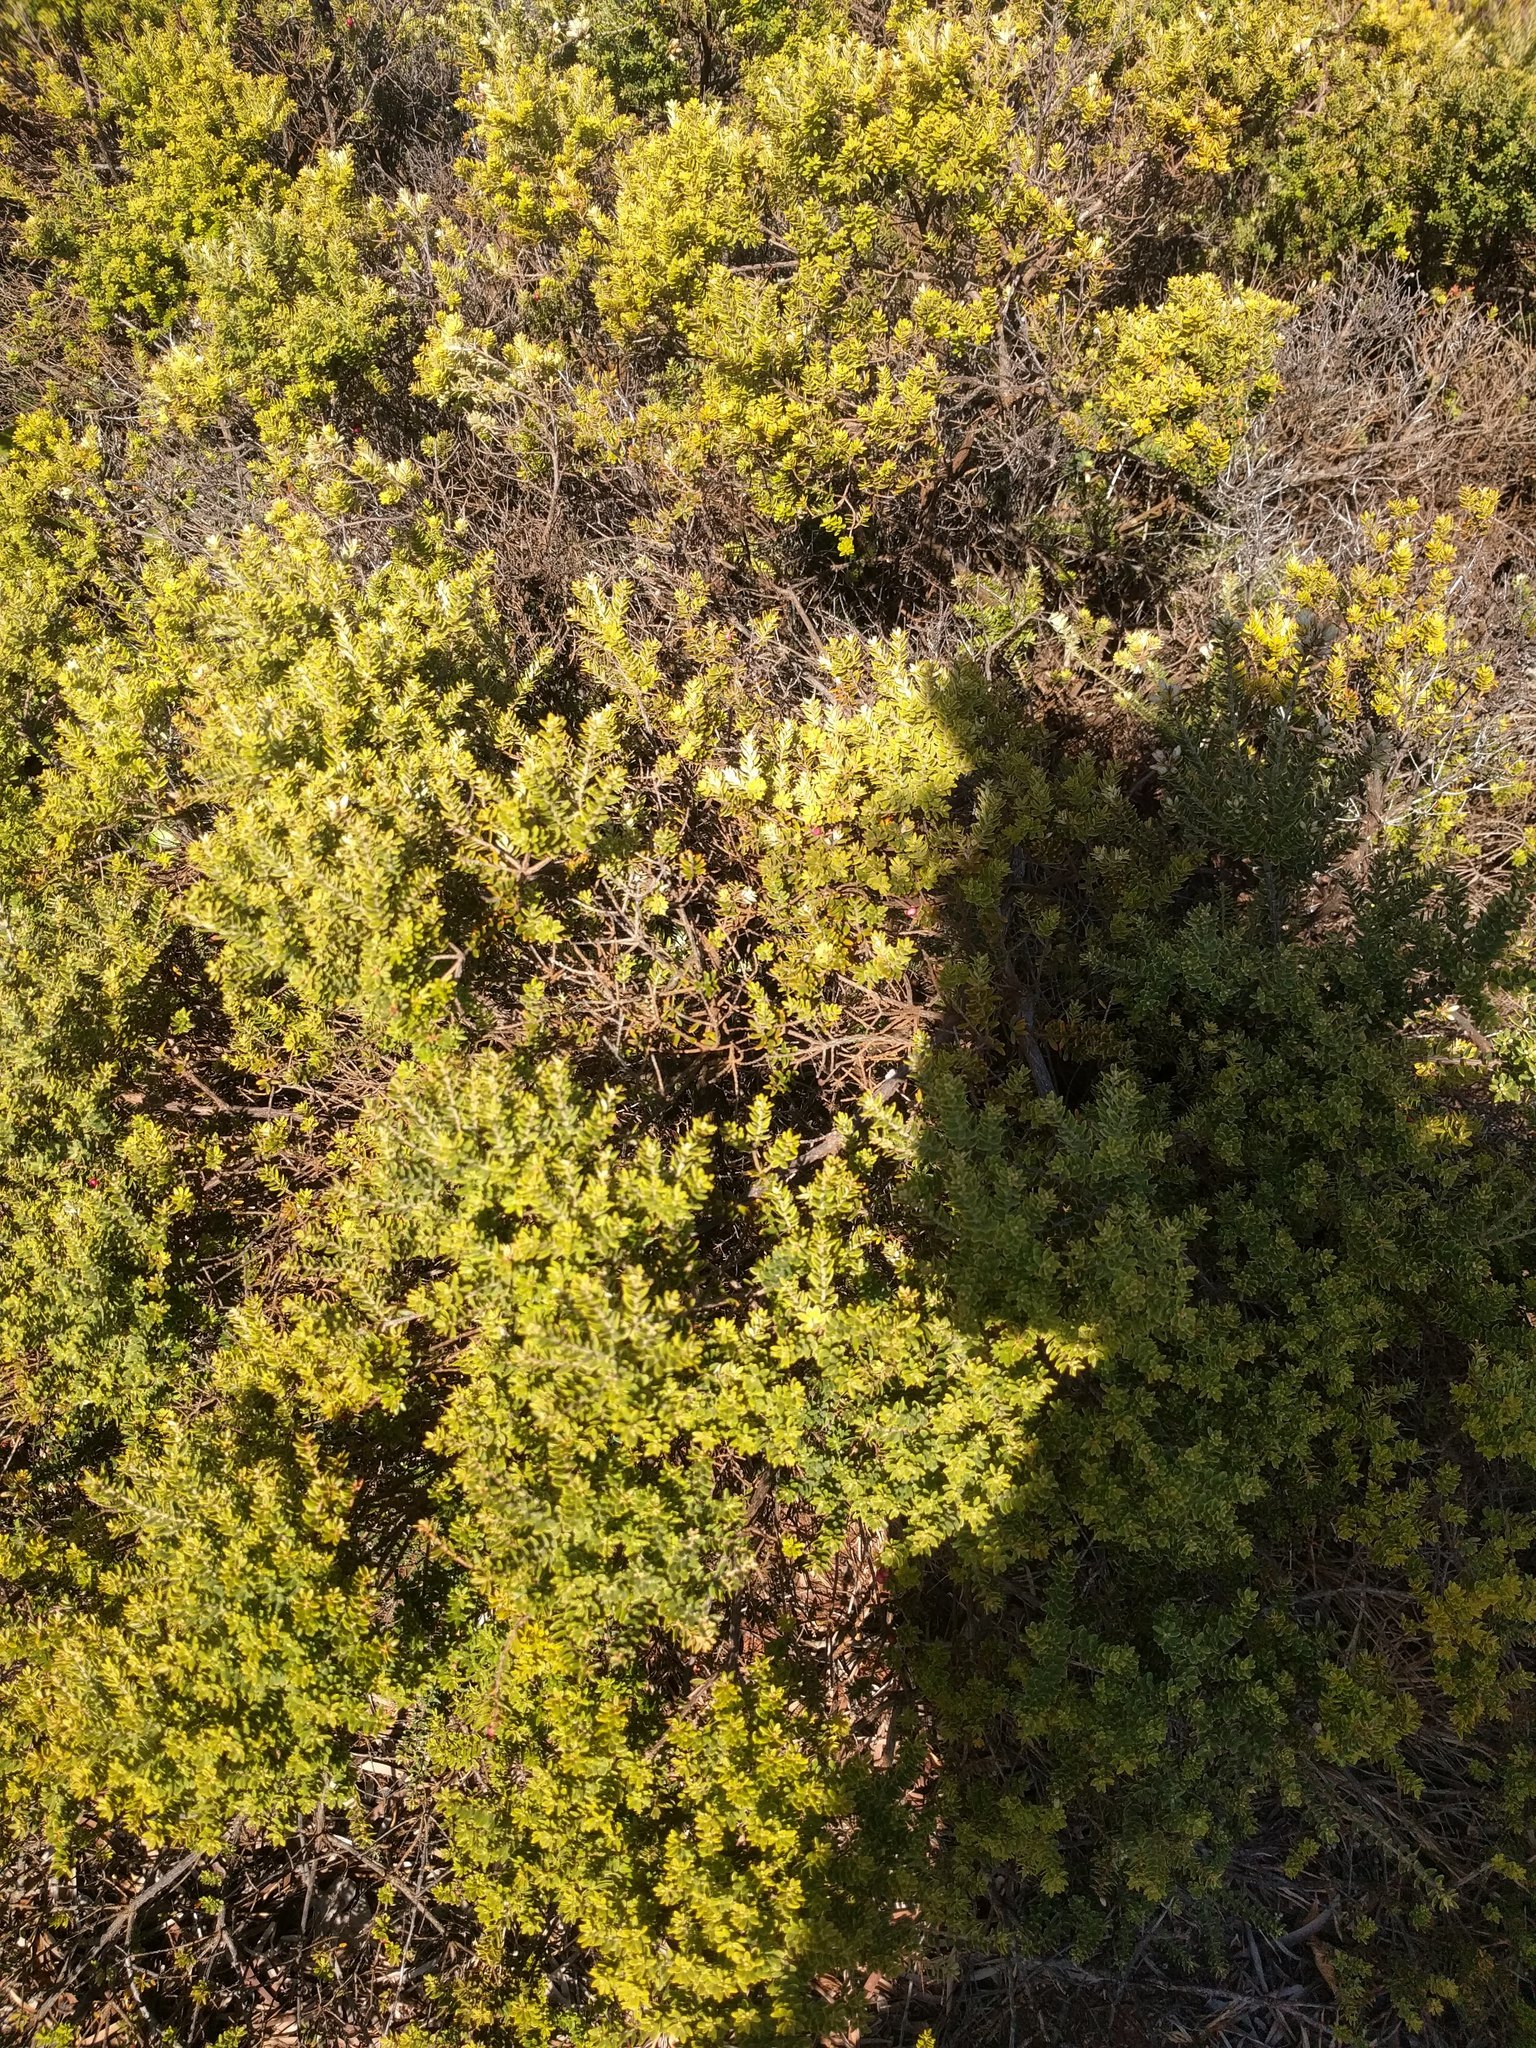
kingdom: Plantae
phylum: Tracheophyta
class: Magnoliopsida
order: Ericales
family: Ericaceae
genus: Leptecophylla
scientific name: Leptecophylla tameiameiae
